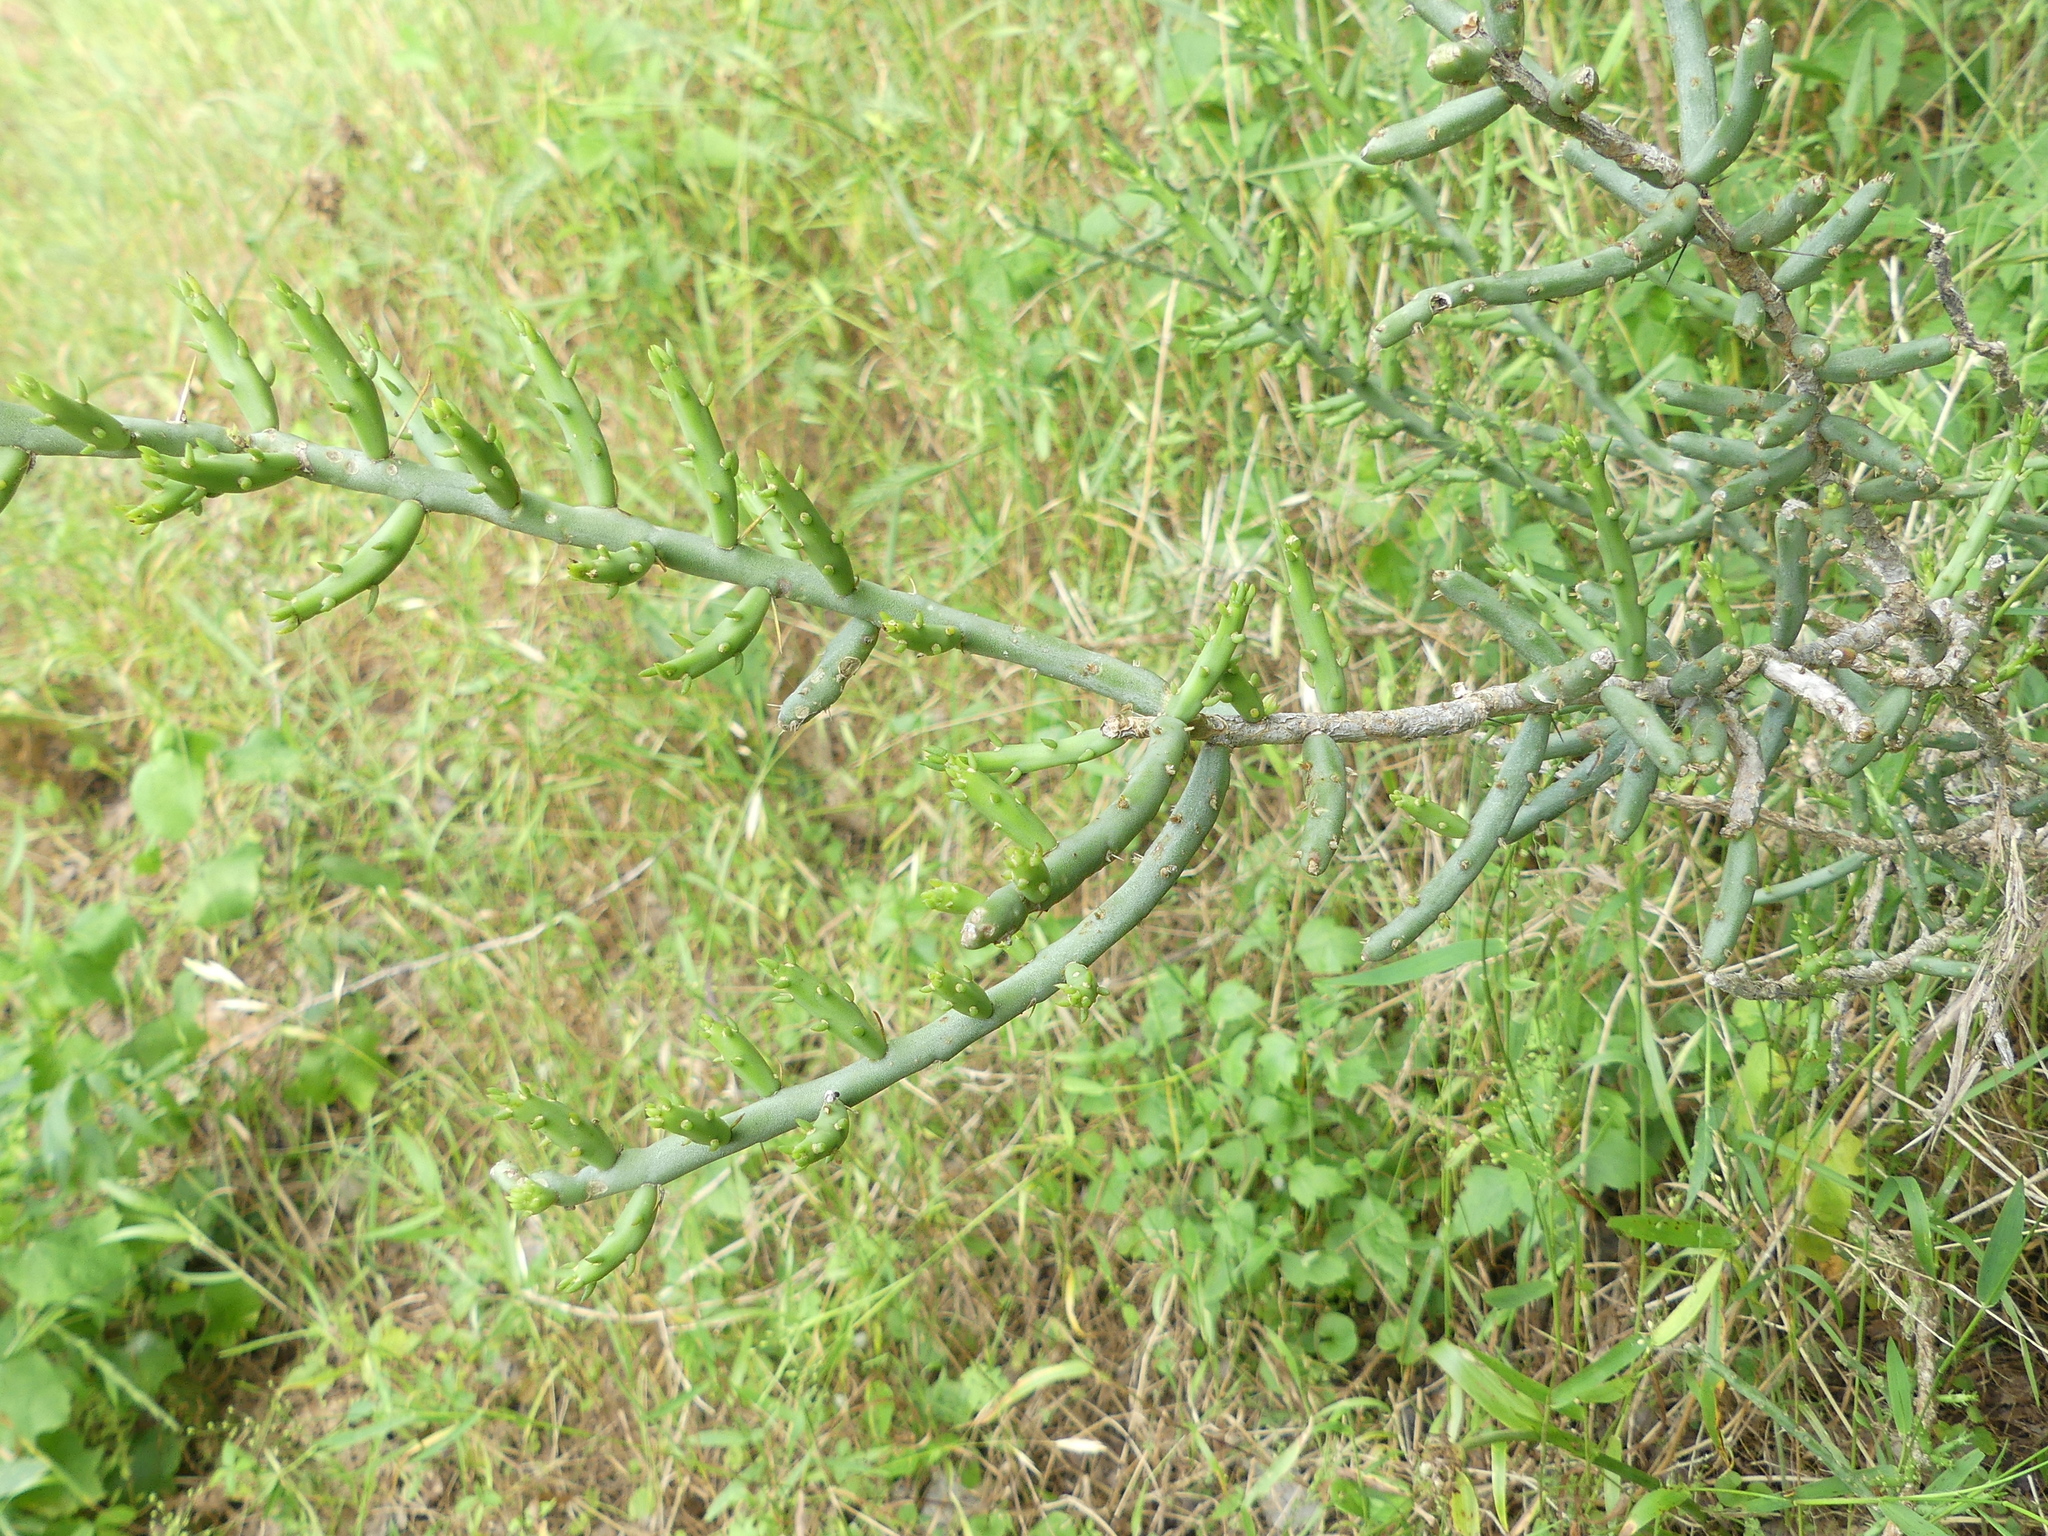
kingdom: Plantae
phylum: Tracheophyta
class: Magnoliopsida
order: Caryophyllales
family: Cactaceae
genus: Cylindropuntia
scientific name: Cylindropuntia leptocaulis
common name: Christmas cactus
